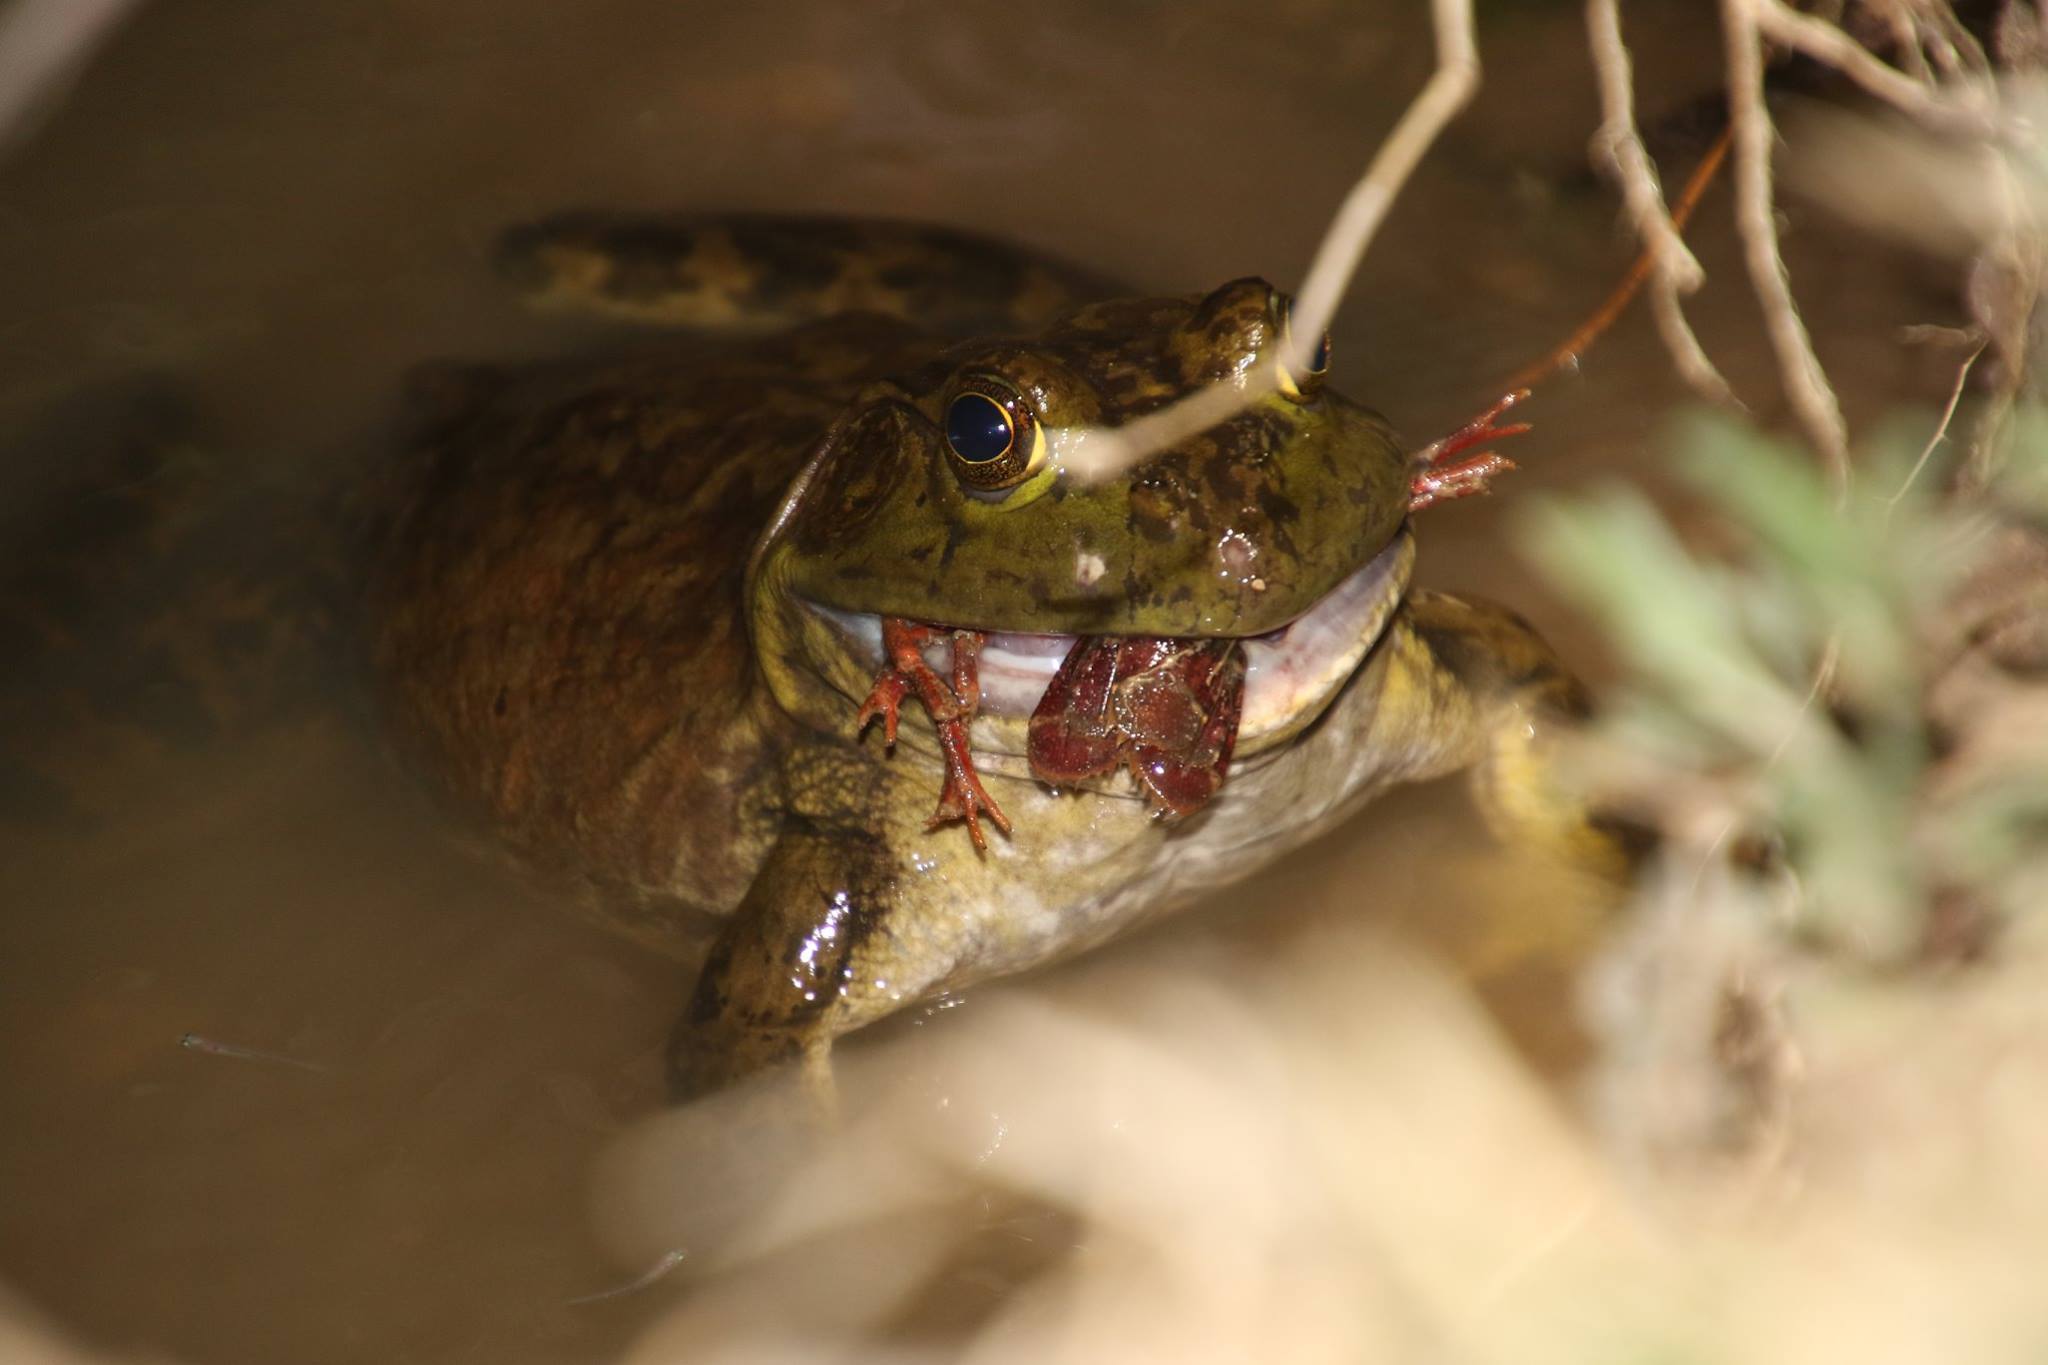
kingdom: Animalia
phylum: Chordata
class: Amphibia
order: Anura
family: Ranidae
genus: Lithobates
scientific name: Lithobates catesbeianus
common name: American bullfrog
